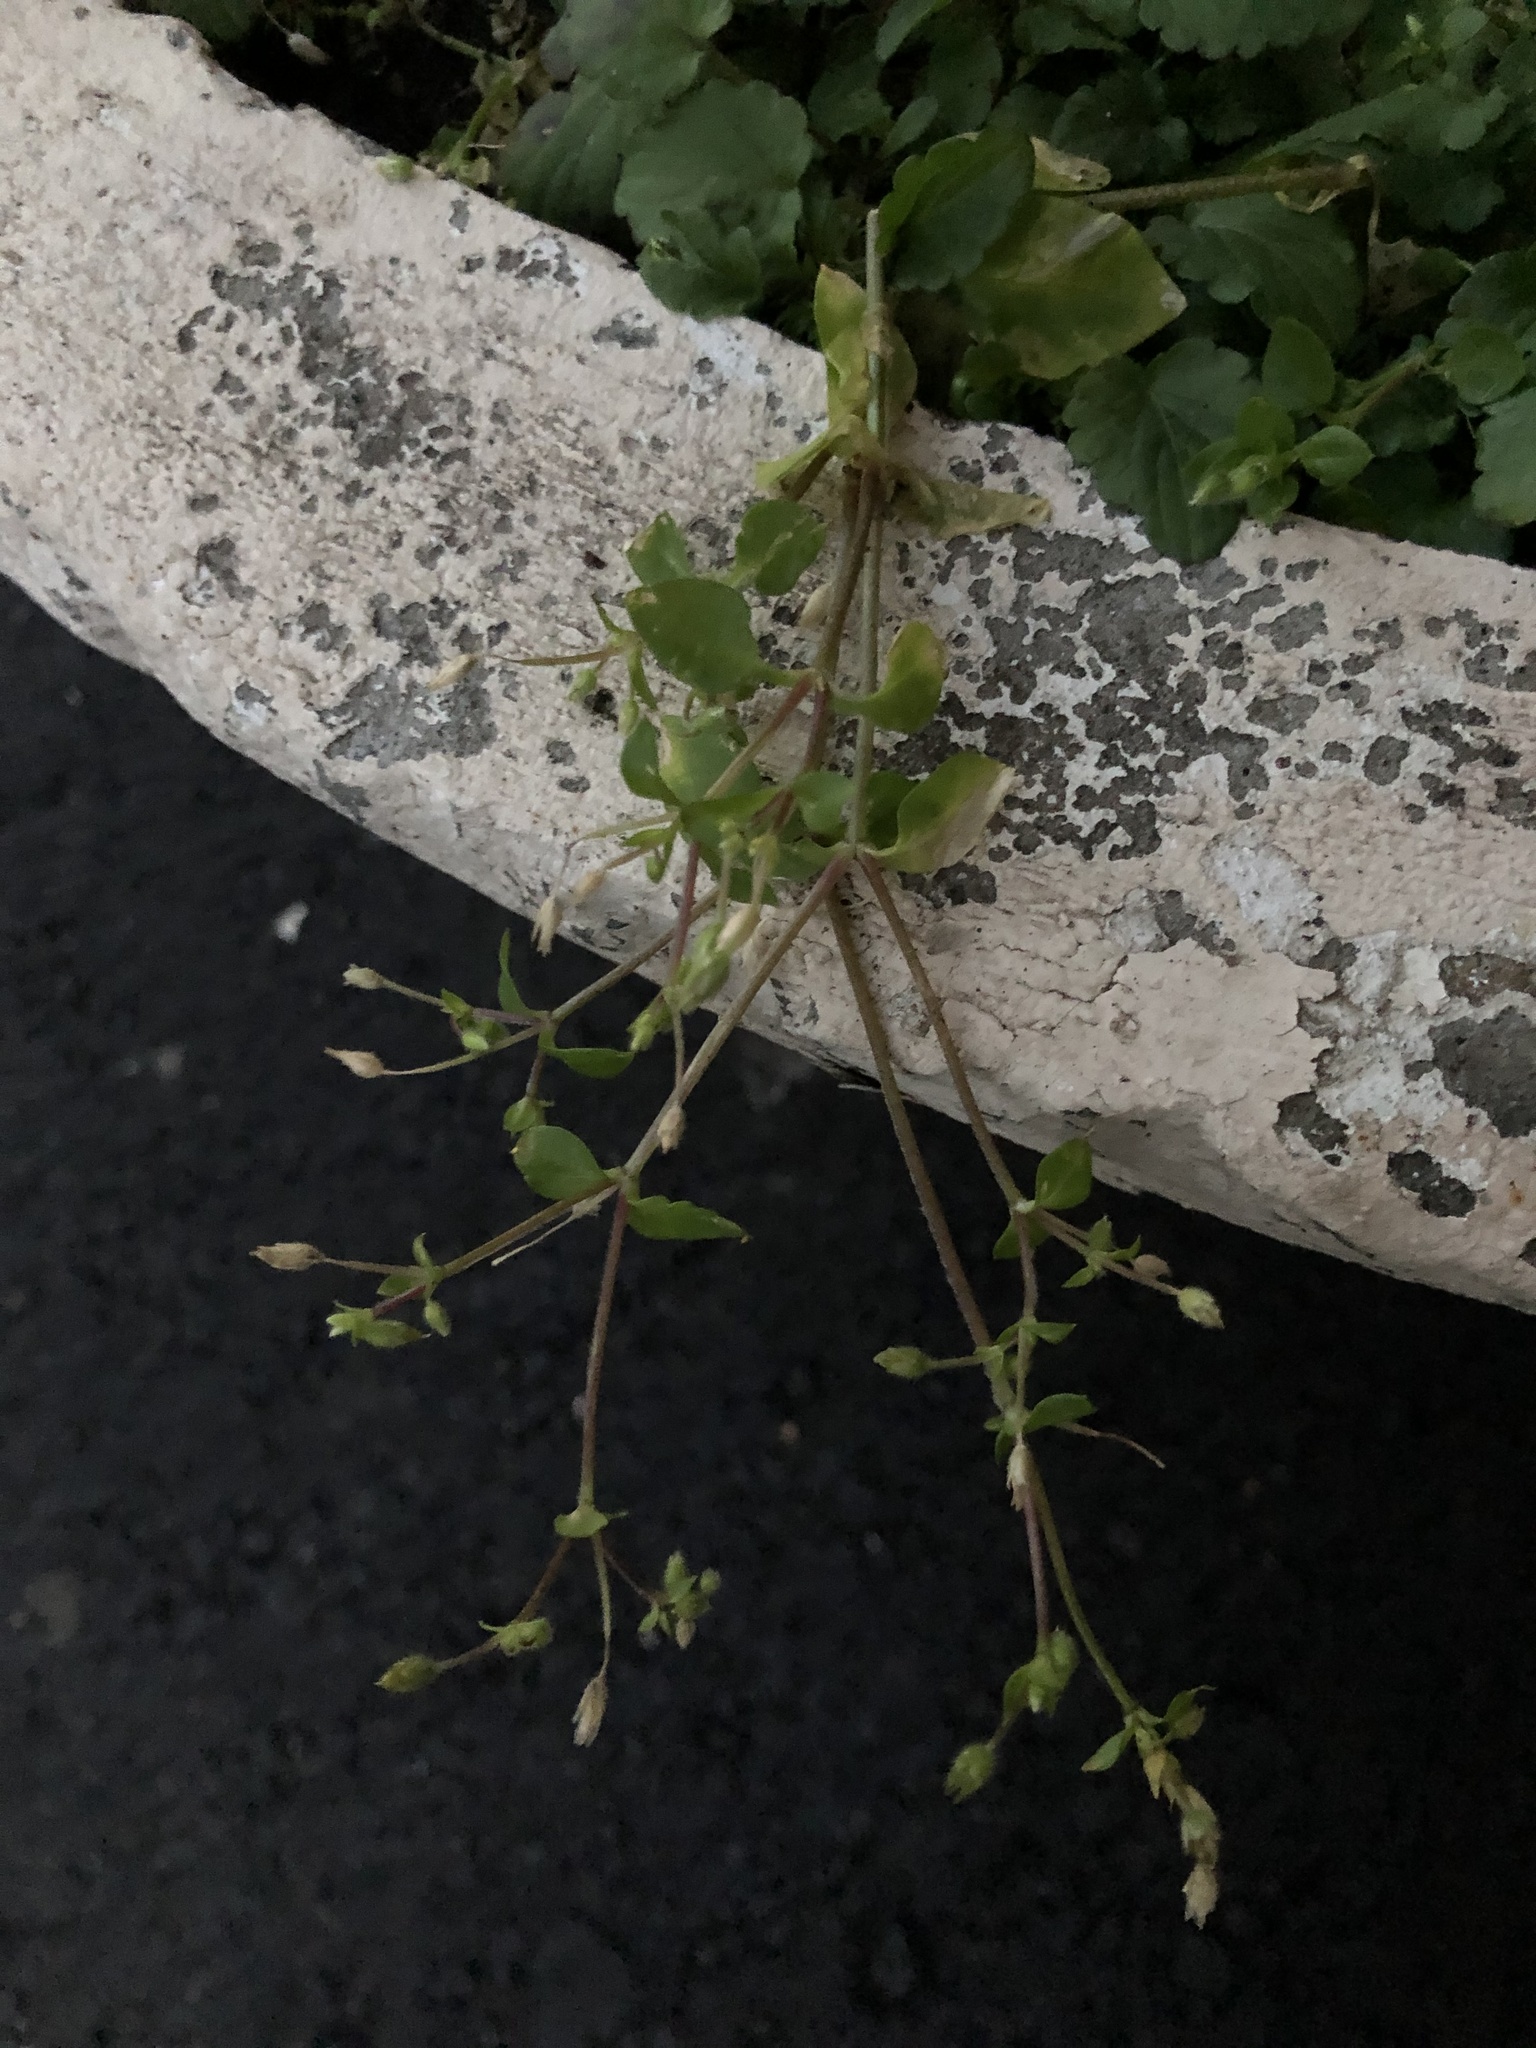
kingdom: Plantae
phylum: Tracheophyta
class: Magnoliopsida
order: Caryophyllales
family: Caryophyllaceae
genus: Cerastium
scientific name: Cerastium holosteoides
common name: Big chickweed
